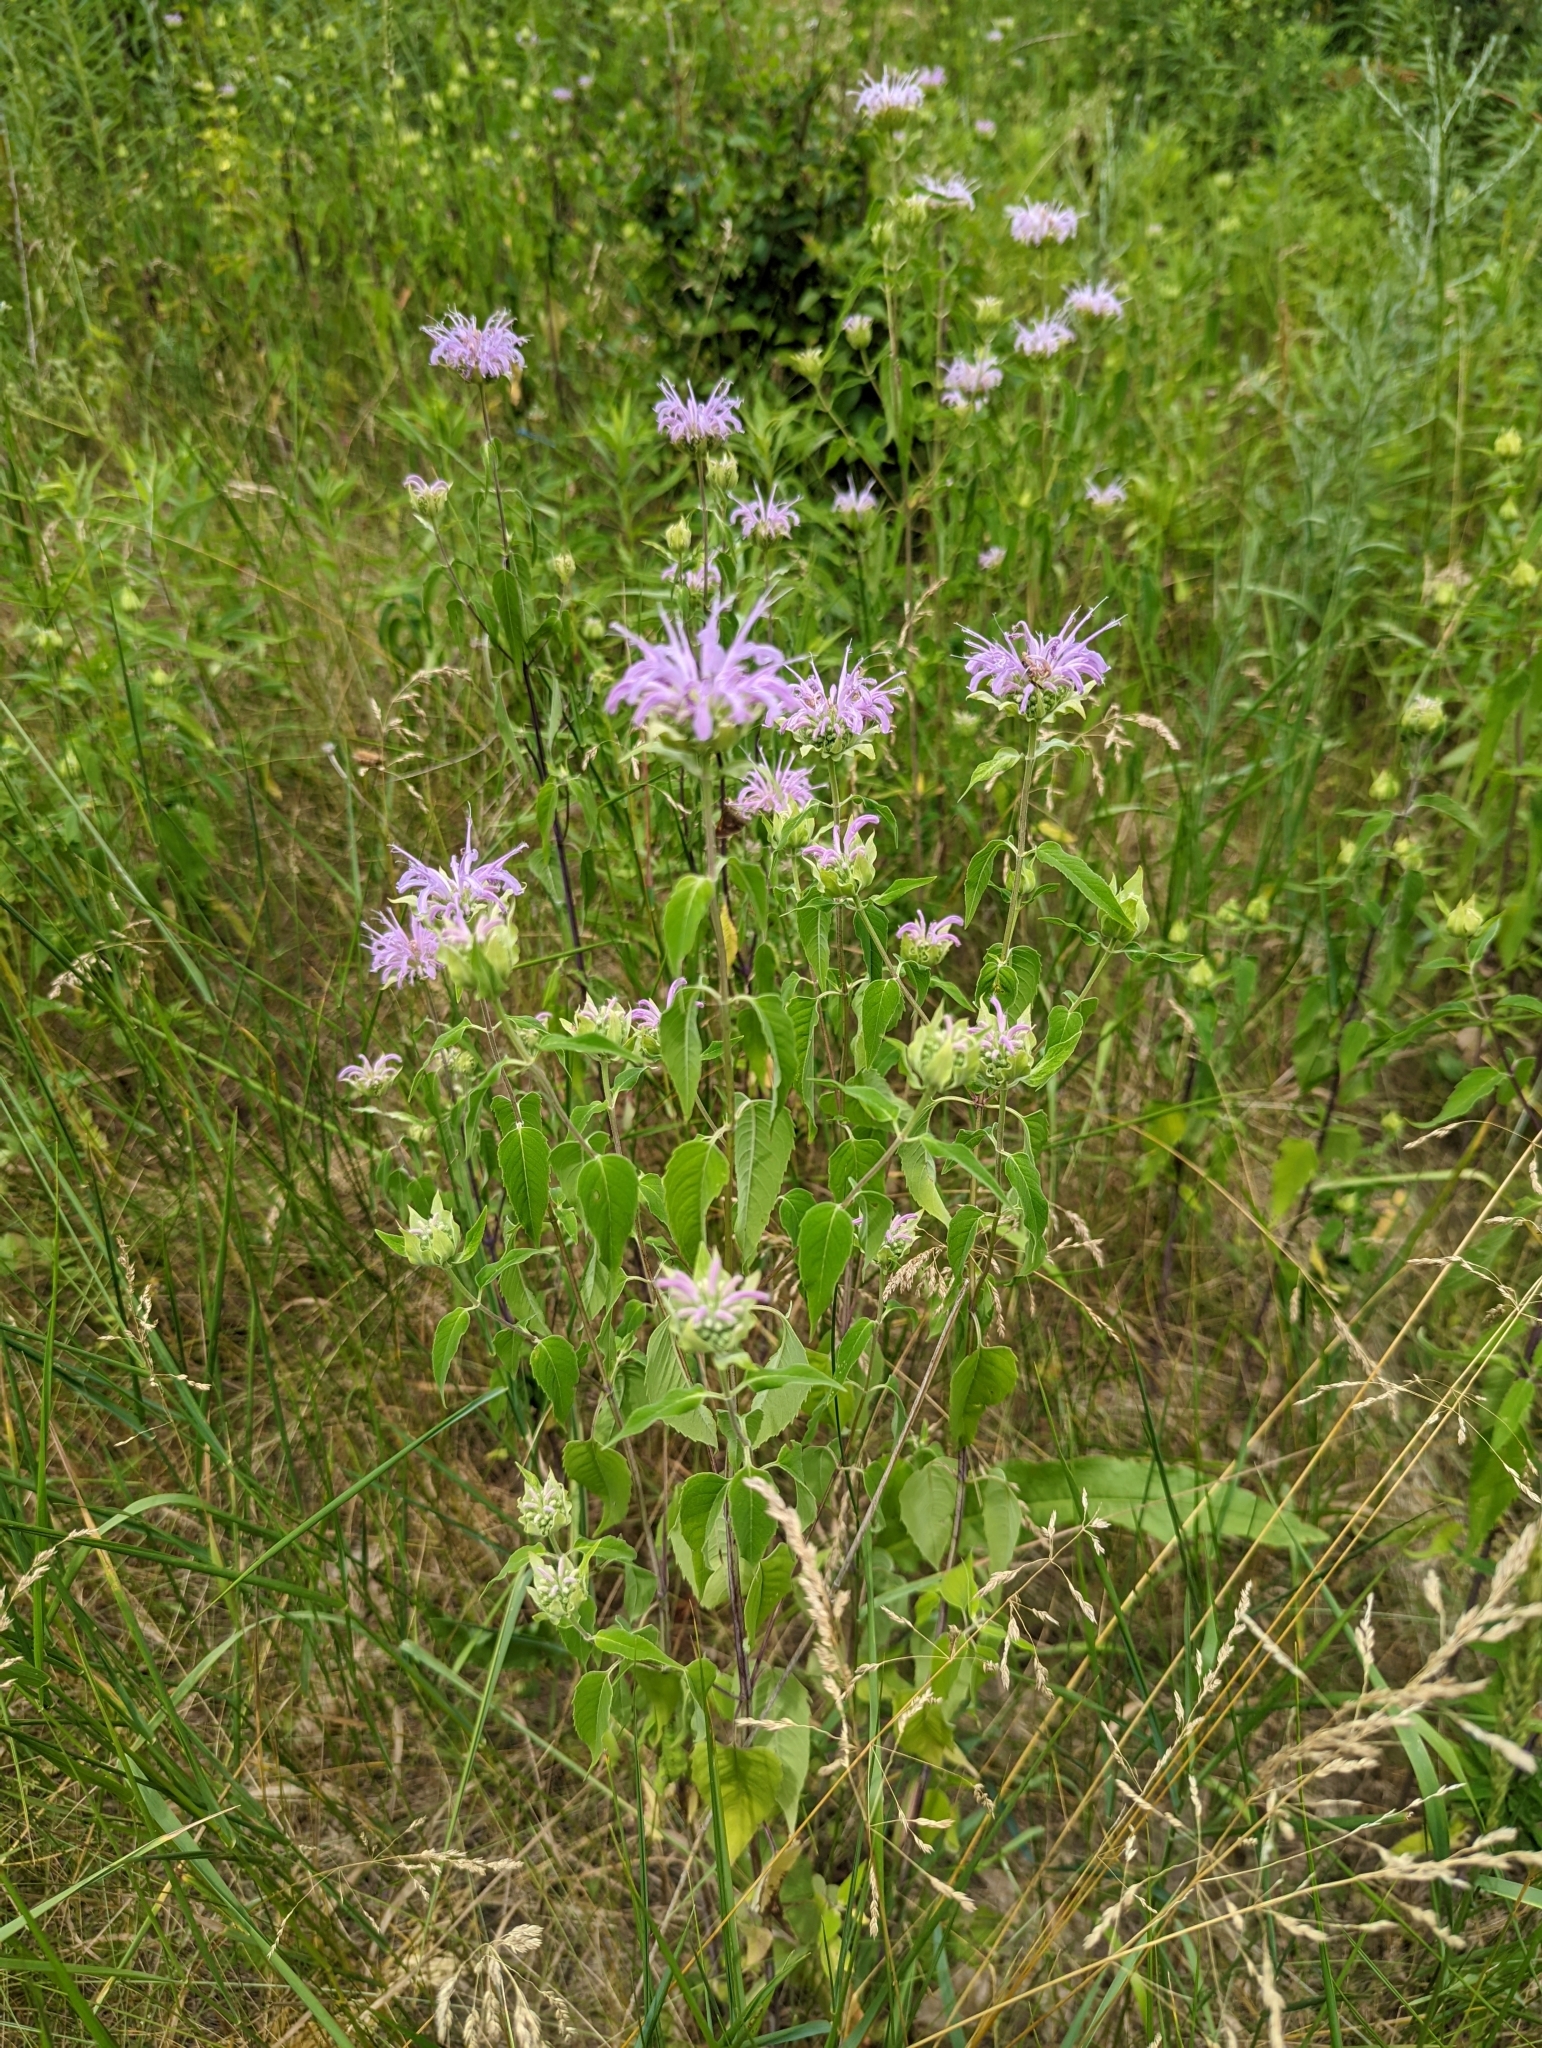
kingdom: Plantae
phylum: Tracheophyta
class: Magnoliopsida
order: Lamiales
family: Lamiaceae
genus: Monarda
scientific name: Monarda fistulosa
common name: Purple beebalm
